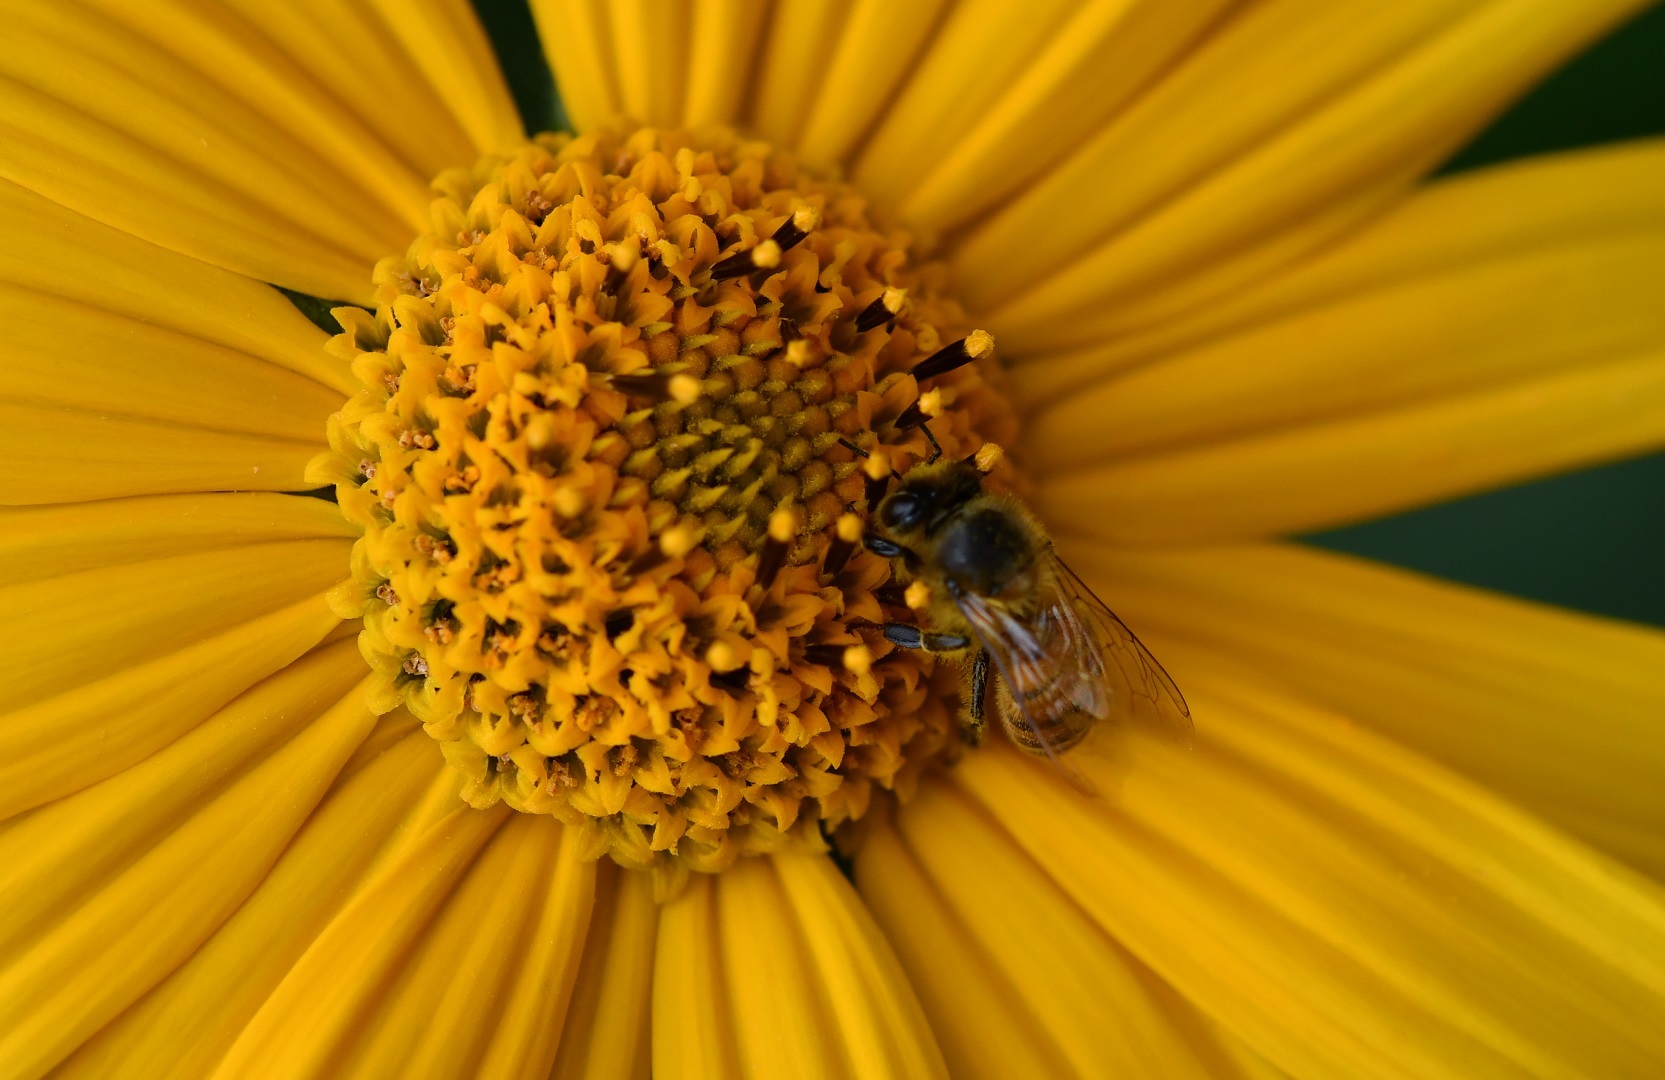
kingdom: Animalia
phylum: Arthropoda
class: Insecta
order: Hymenoptera
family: Apidae
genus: Apis
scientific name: Apis mellifera
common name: Honey bee
